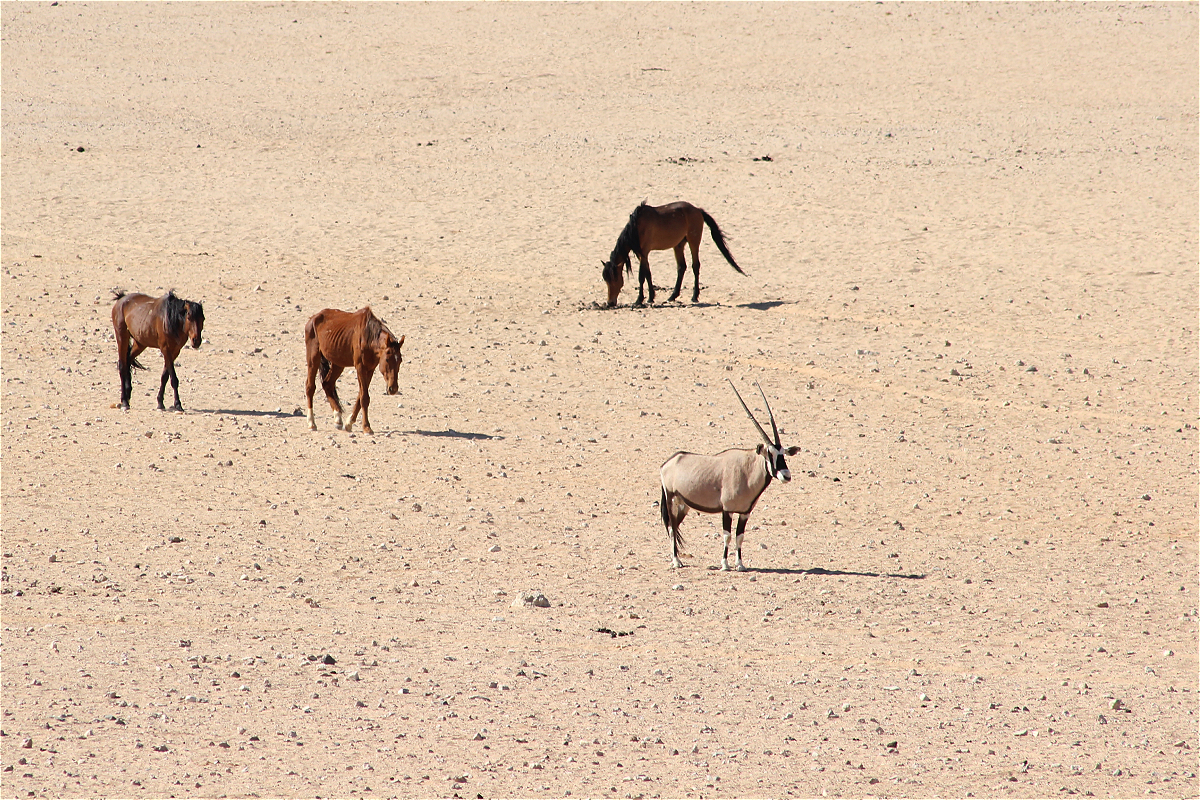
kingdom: Animalia
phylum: Chordata
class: Mammalia
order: Perissodactyla
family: Equidae
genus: Equus
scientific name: Equus caballus
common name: Horse
